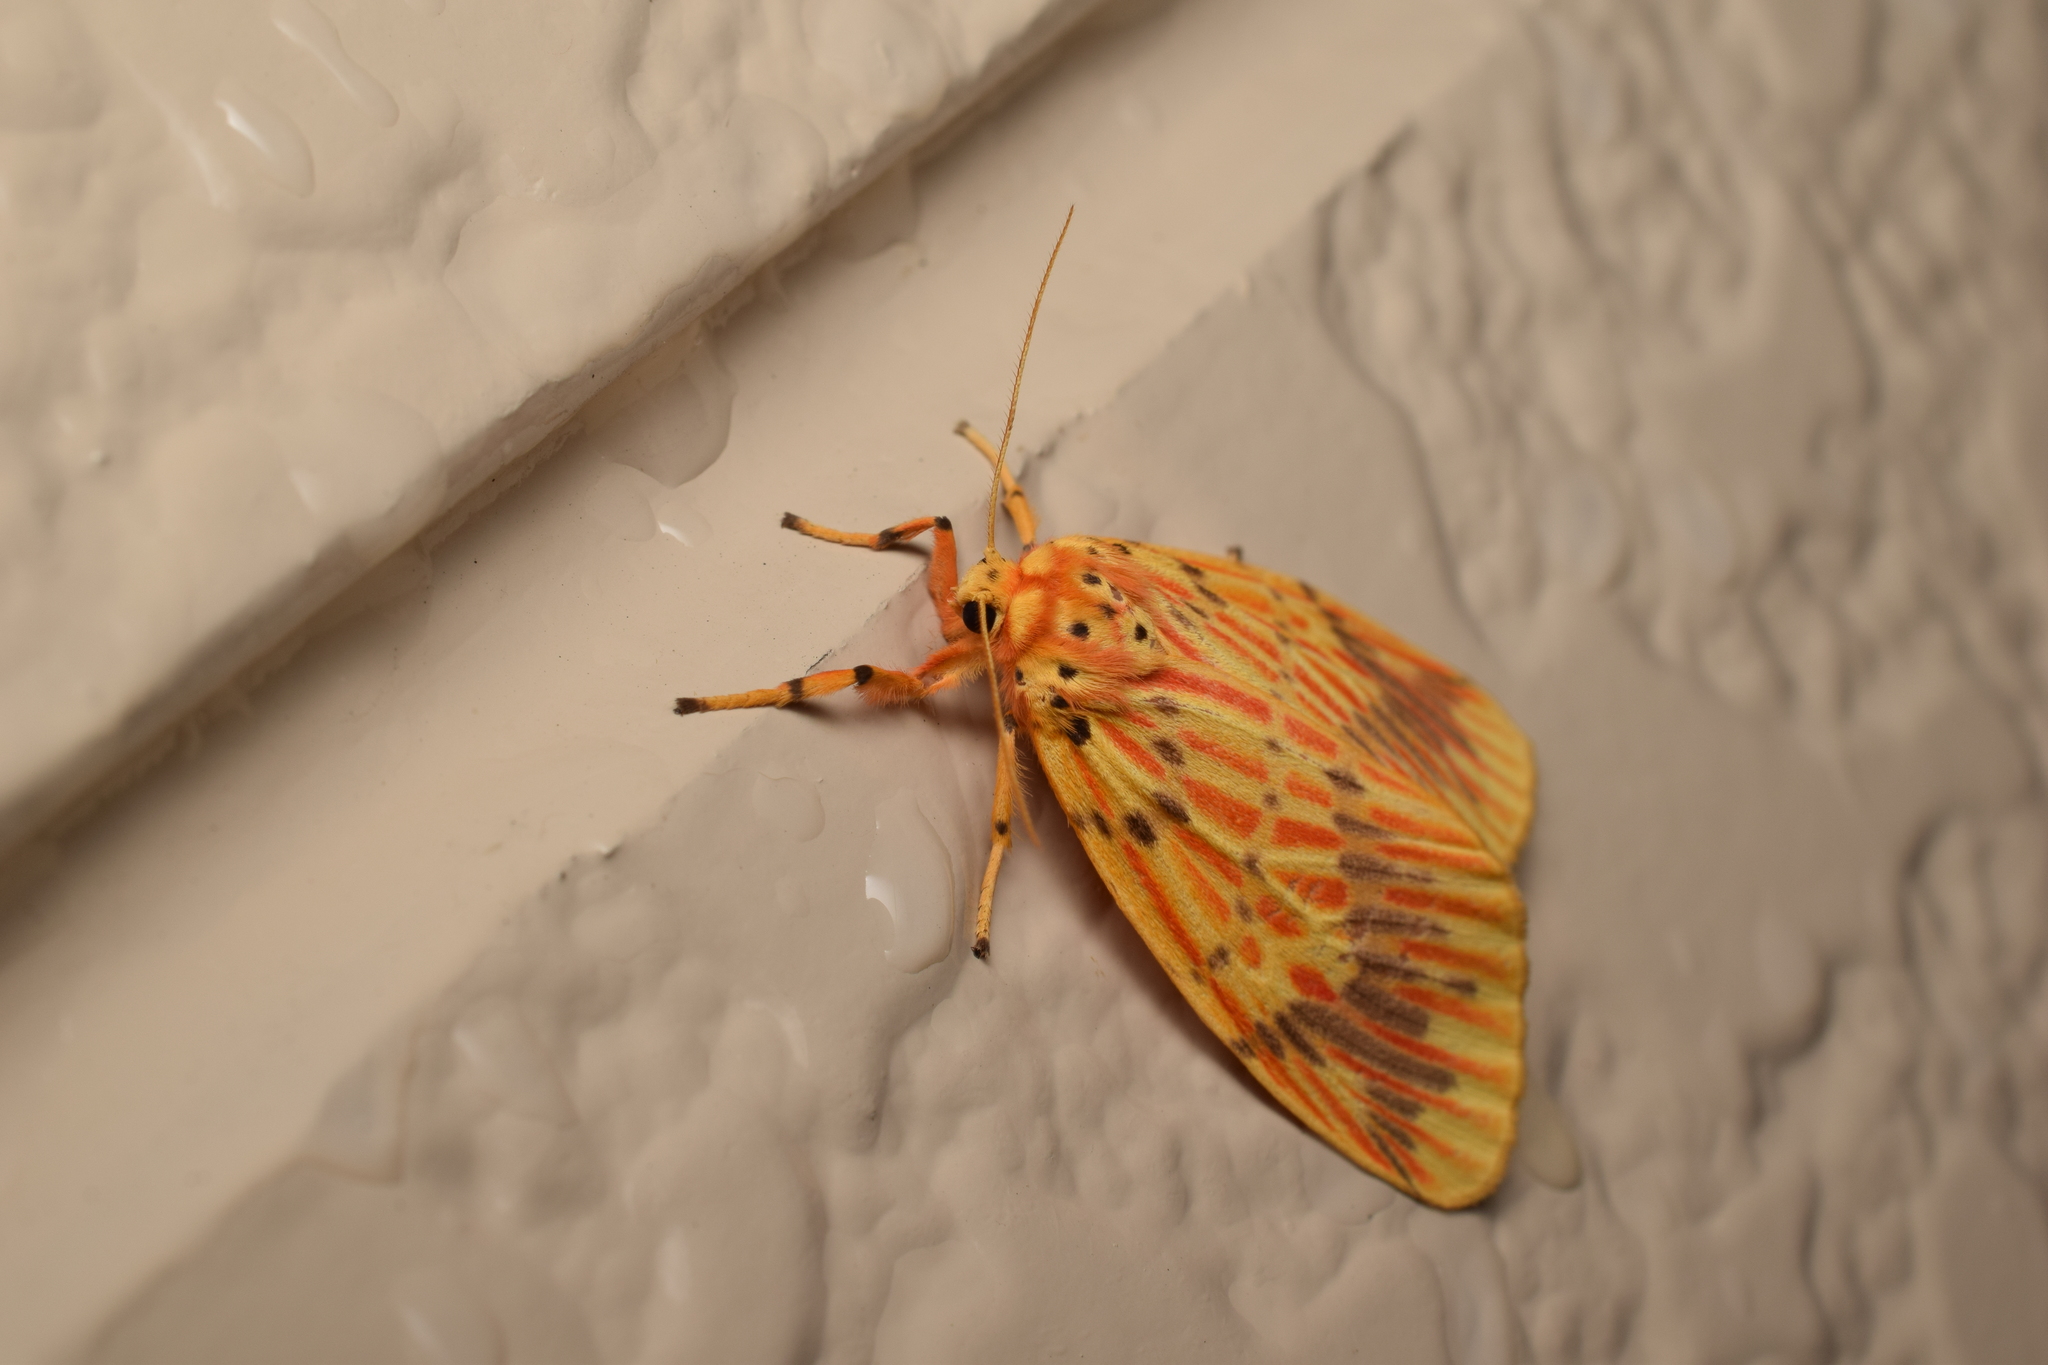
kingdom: Animalia
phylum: Arthropoda
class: Insecta
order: Lepidoptera
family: Erebidae
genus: Barsine
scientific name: Barsine striata
